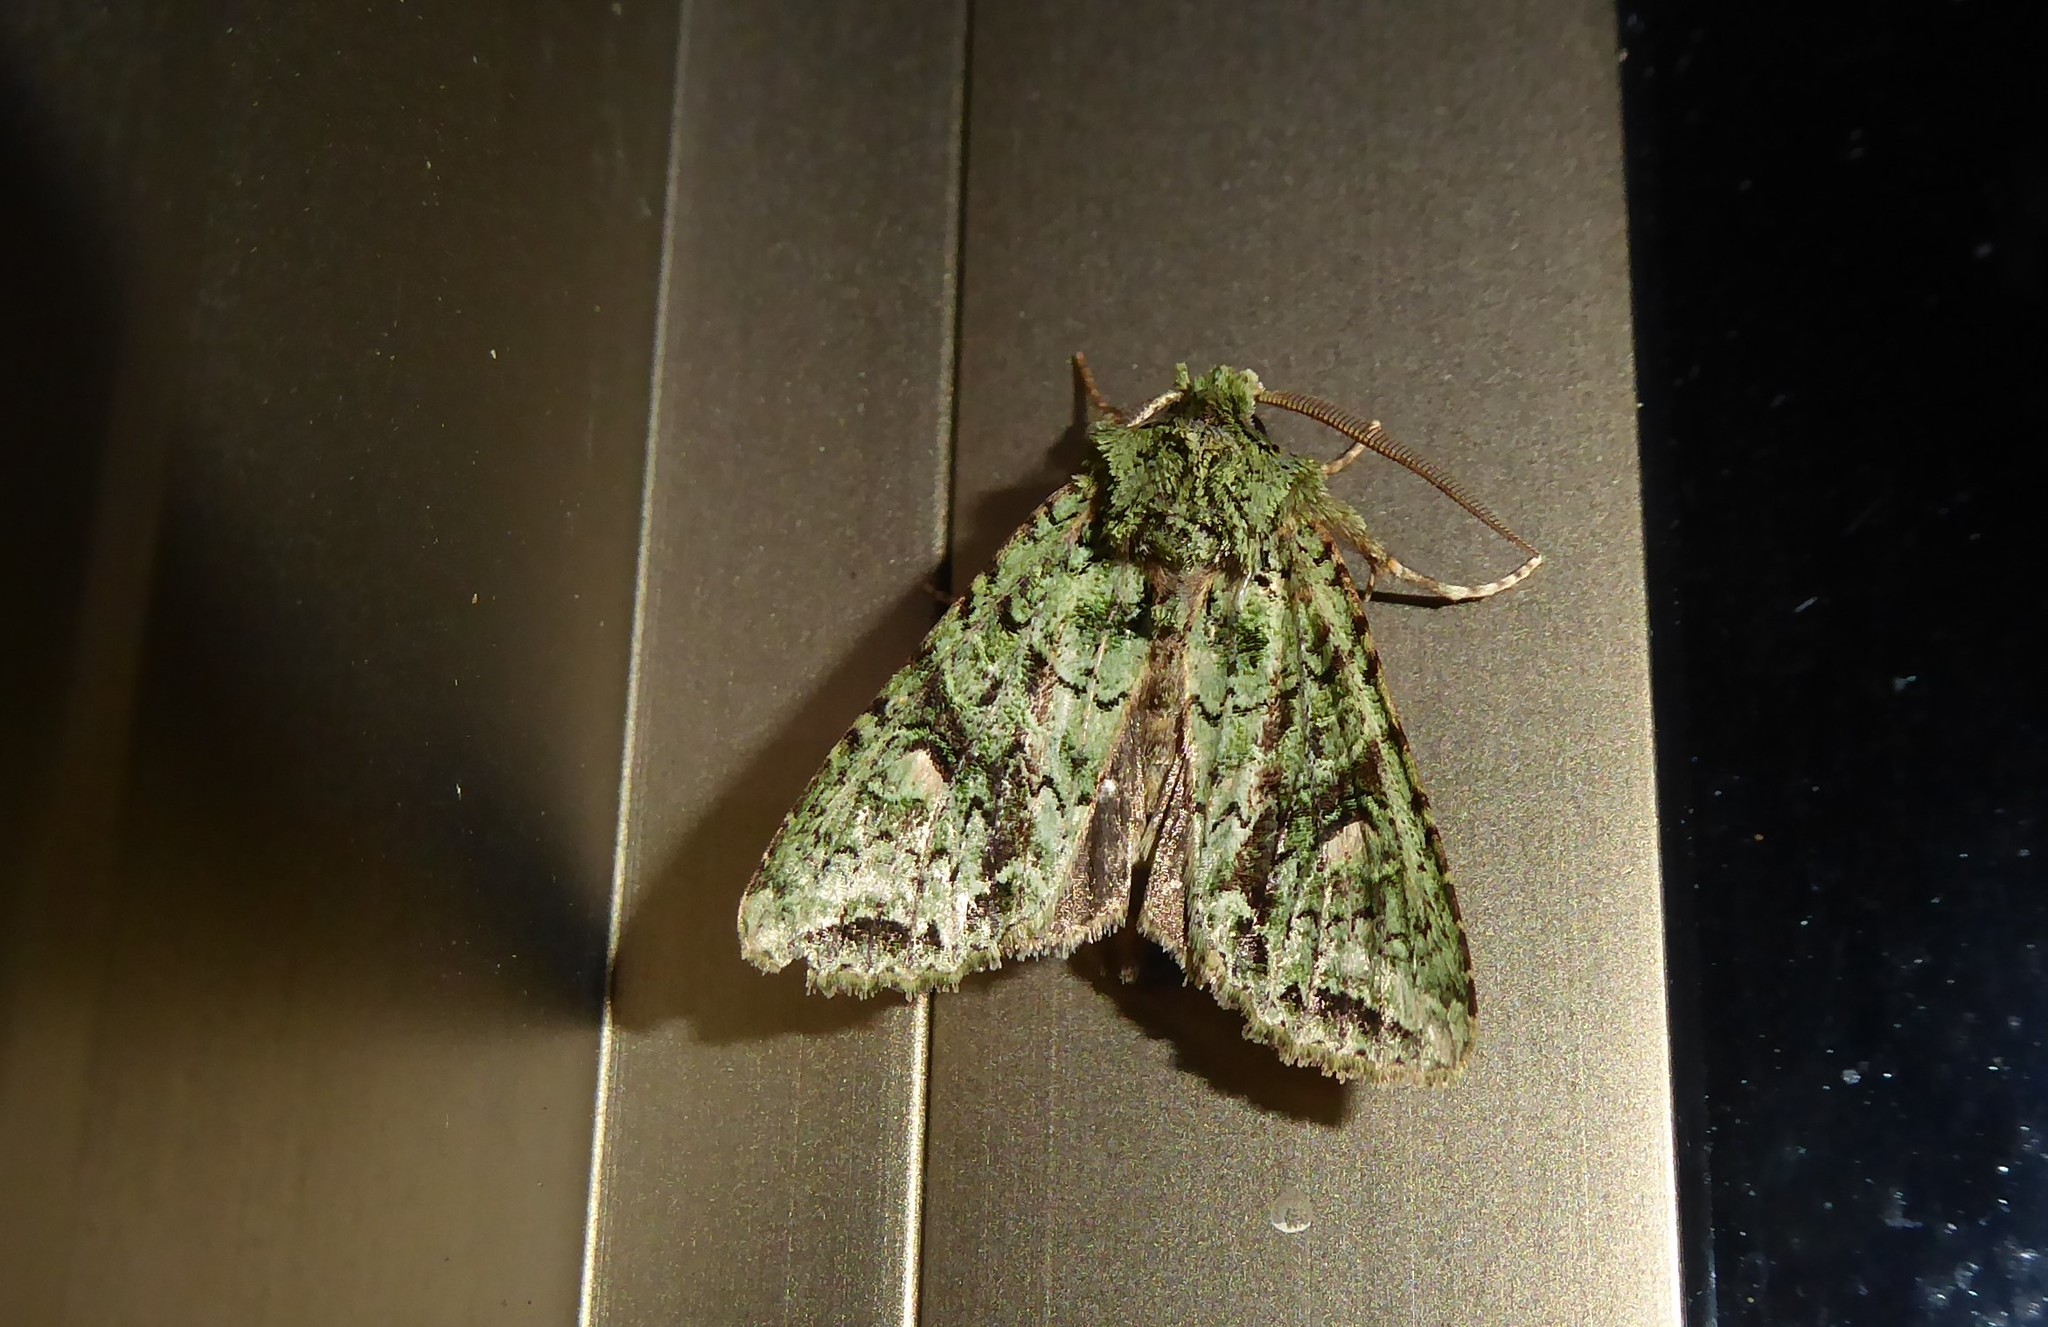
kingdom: Animalia
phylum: Arthropoda
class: Insecta
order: Lepidoptera
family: Noctuidae
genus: Ichneutica
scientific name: Ichneutica
